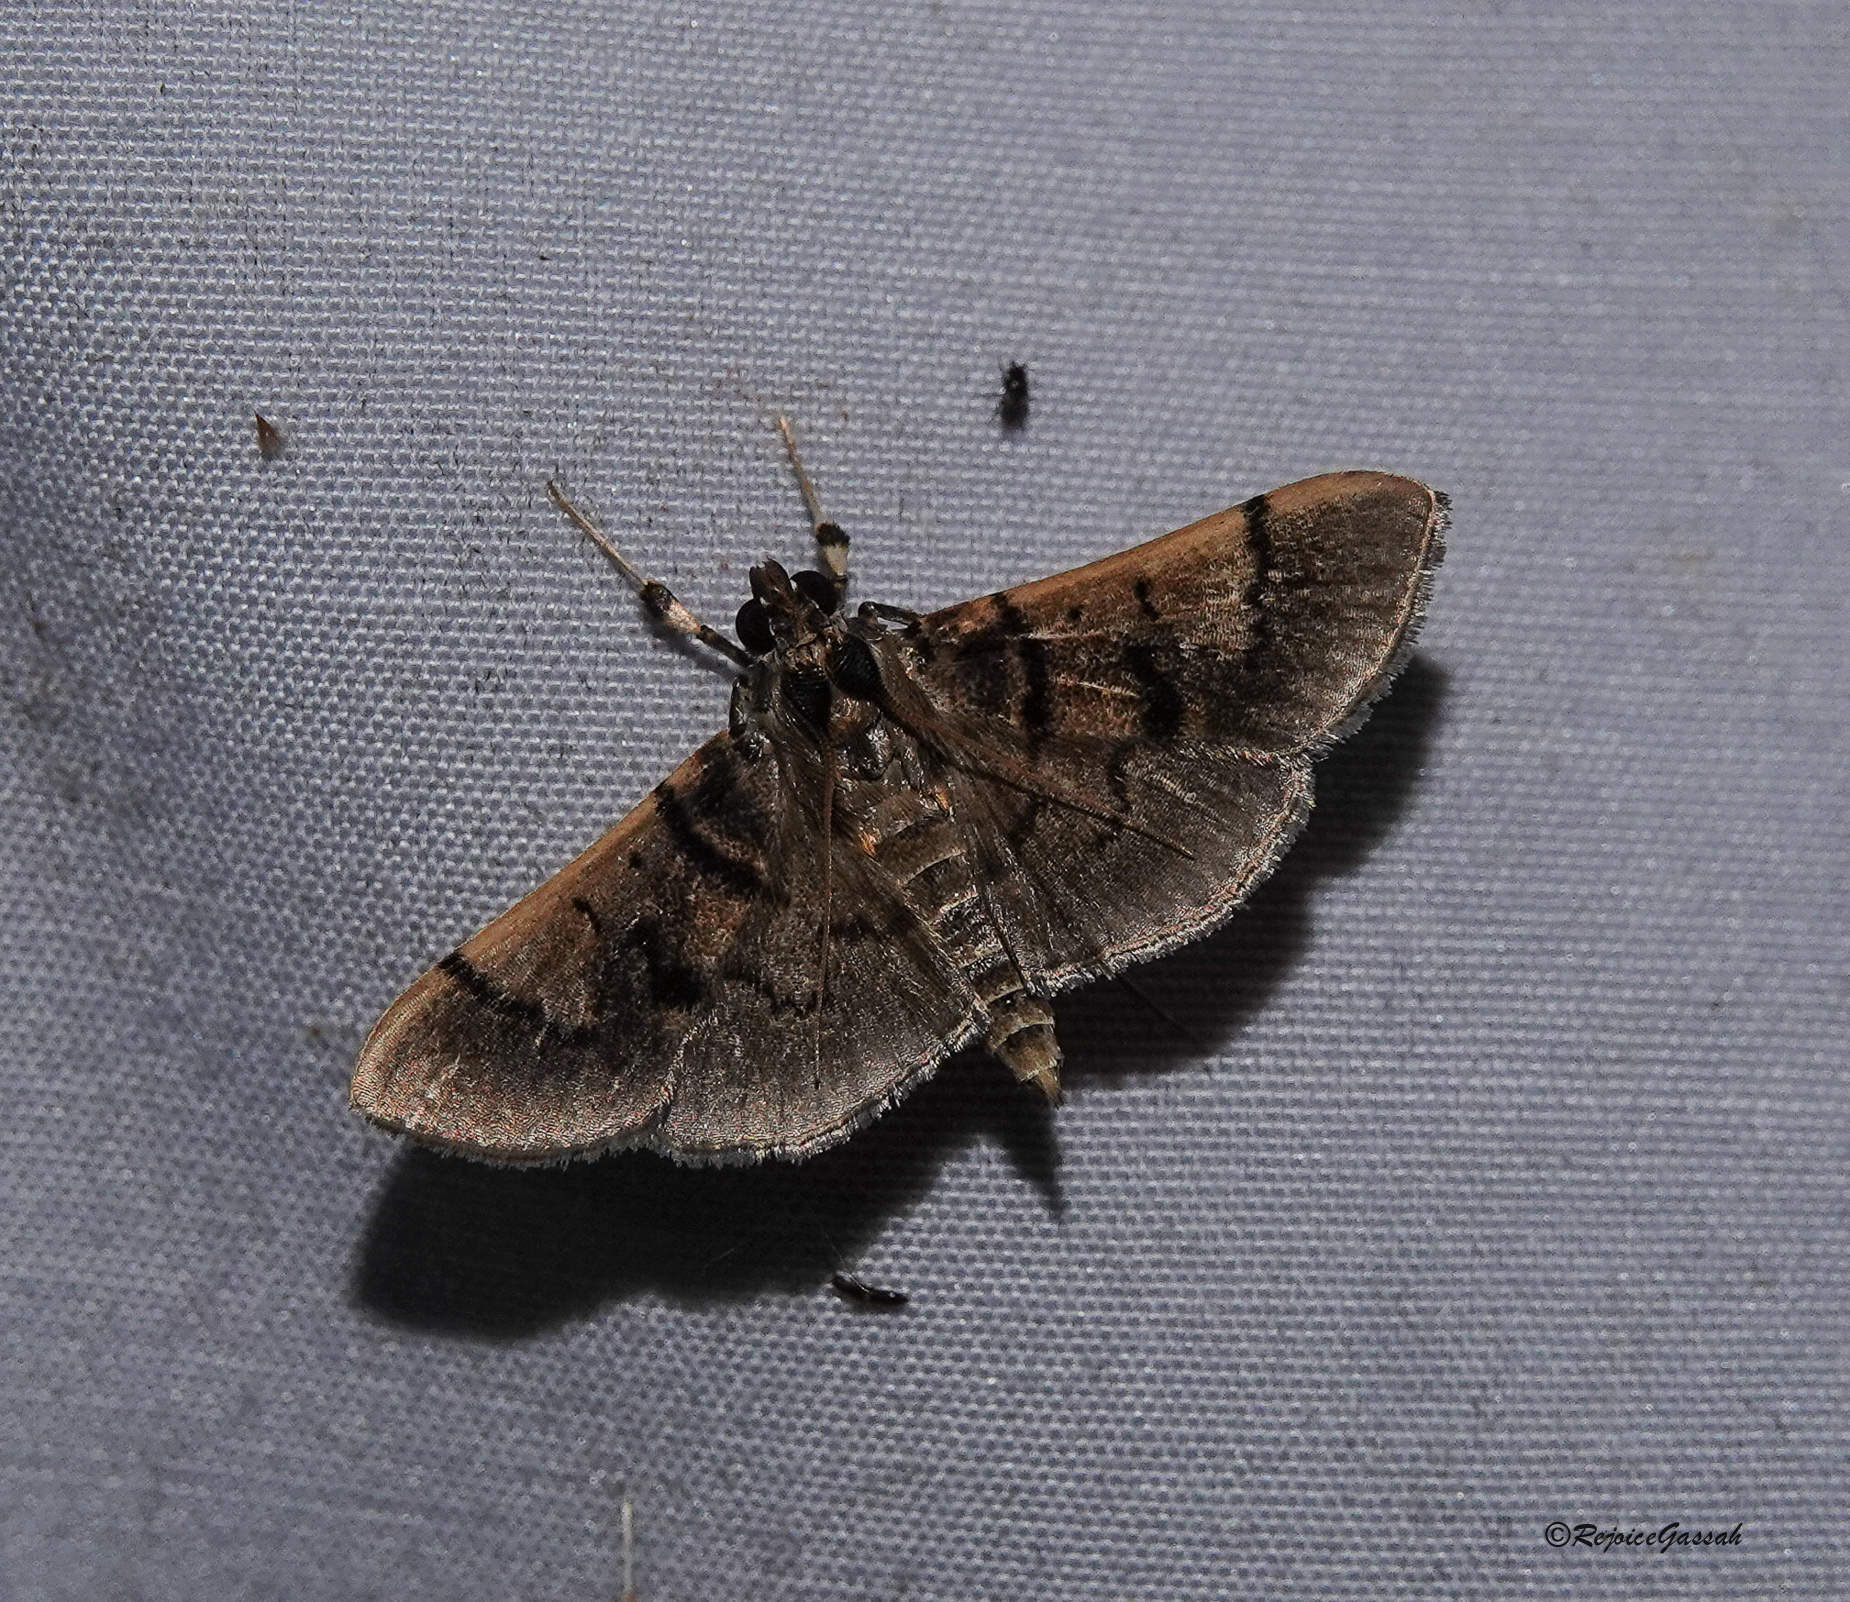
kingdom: Animalia
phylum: Arthropoda
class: Insecta
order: Lepidoptera
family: Crambidae
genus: Omiodes
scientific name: Omiodes surrectalis
